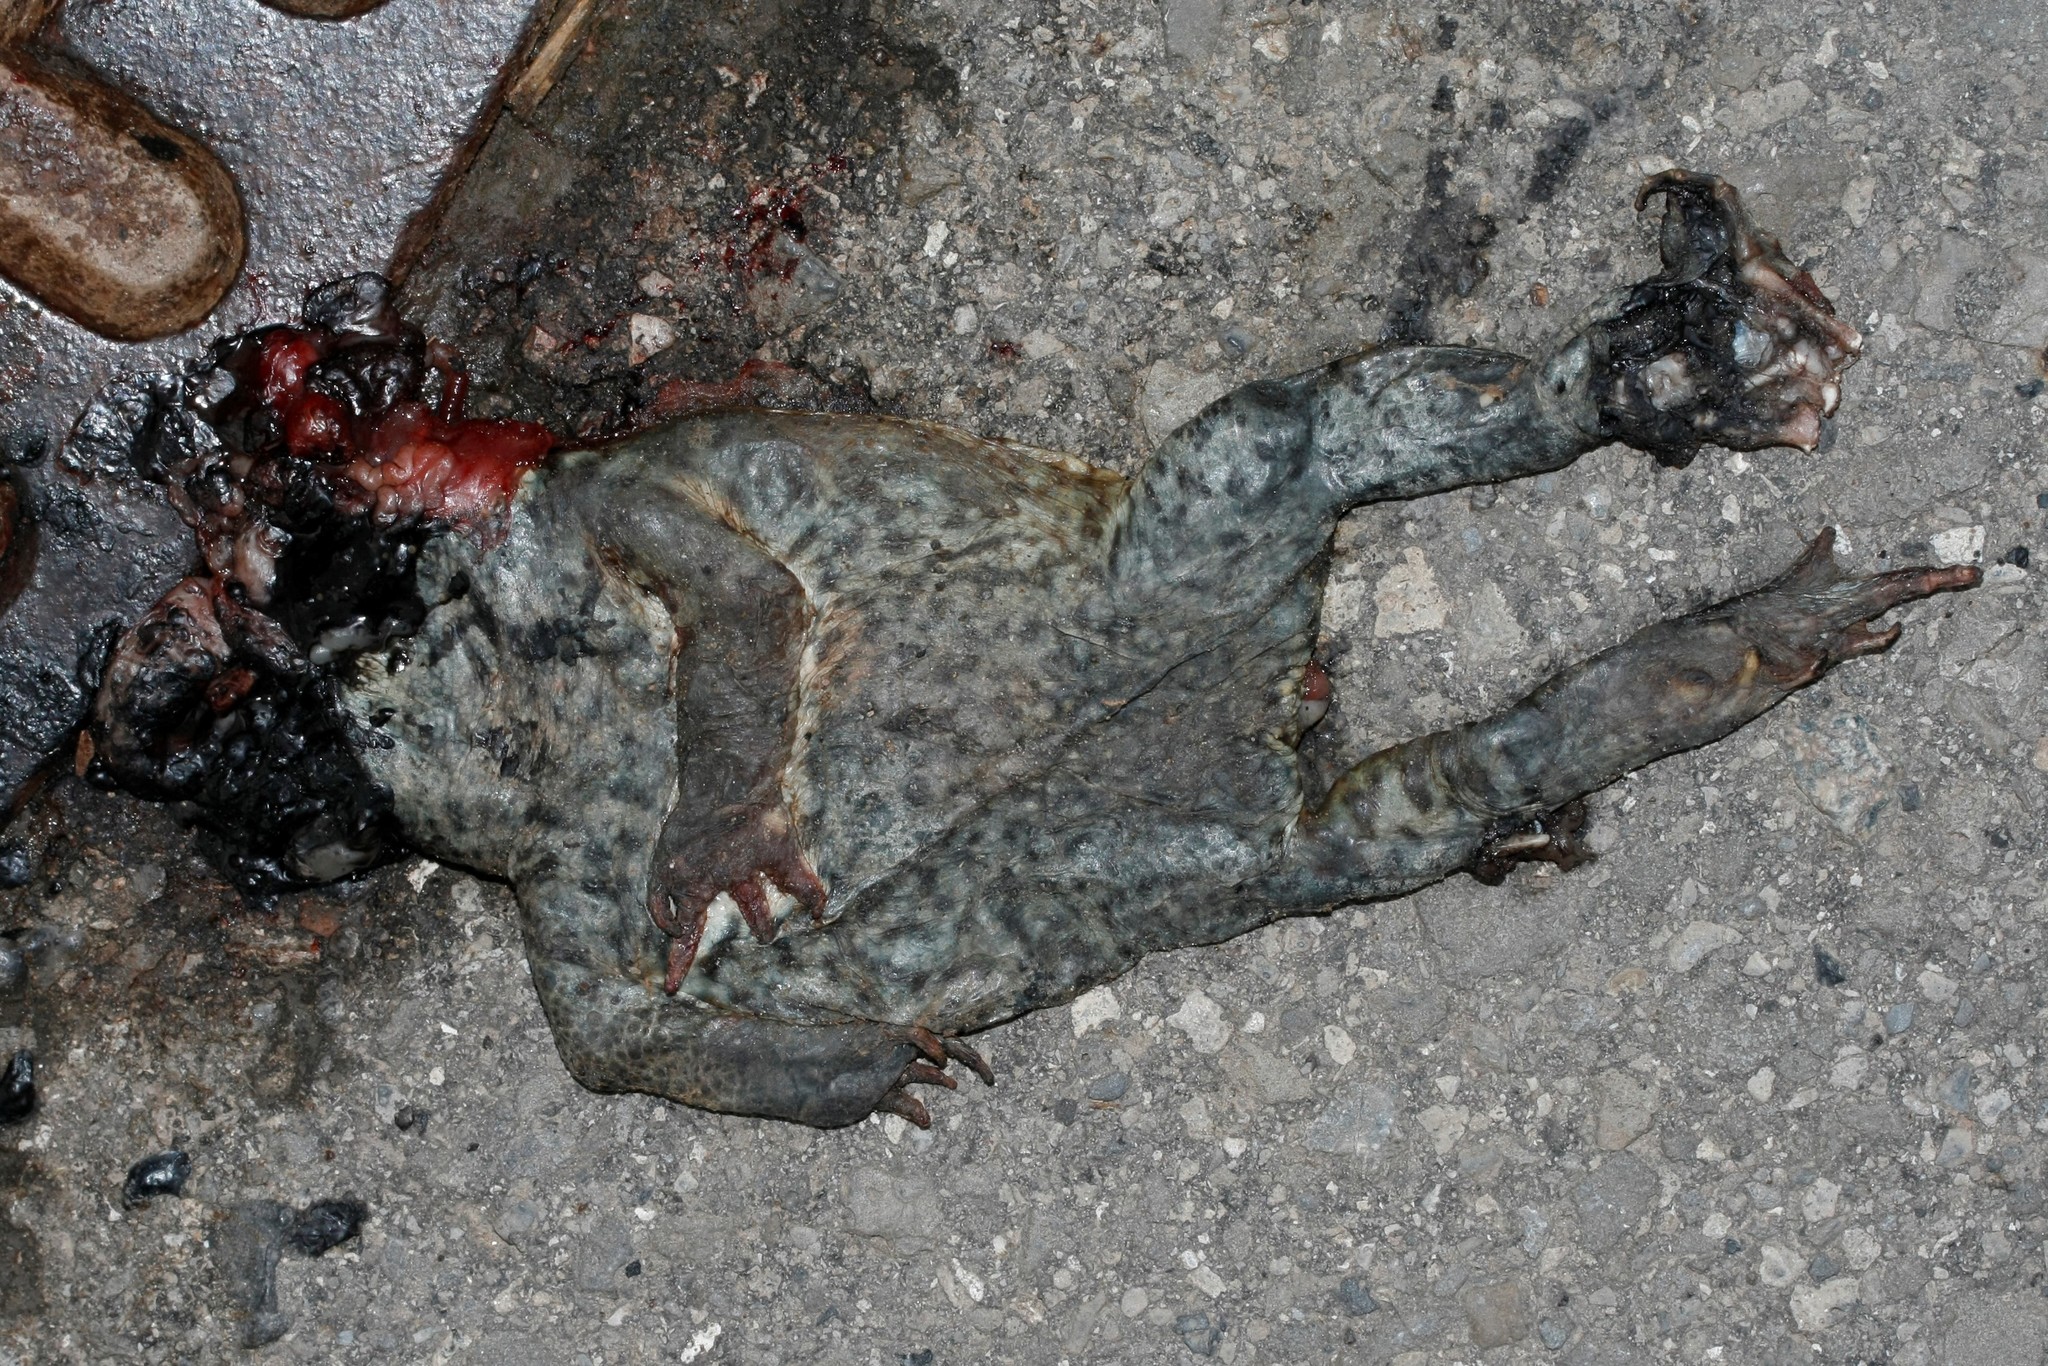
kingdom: Animalia
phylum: Chordata
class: Amphibia
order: Anura
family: Bufonidae
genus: Bufo
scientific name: Bufo bufo
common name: Common toad
